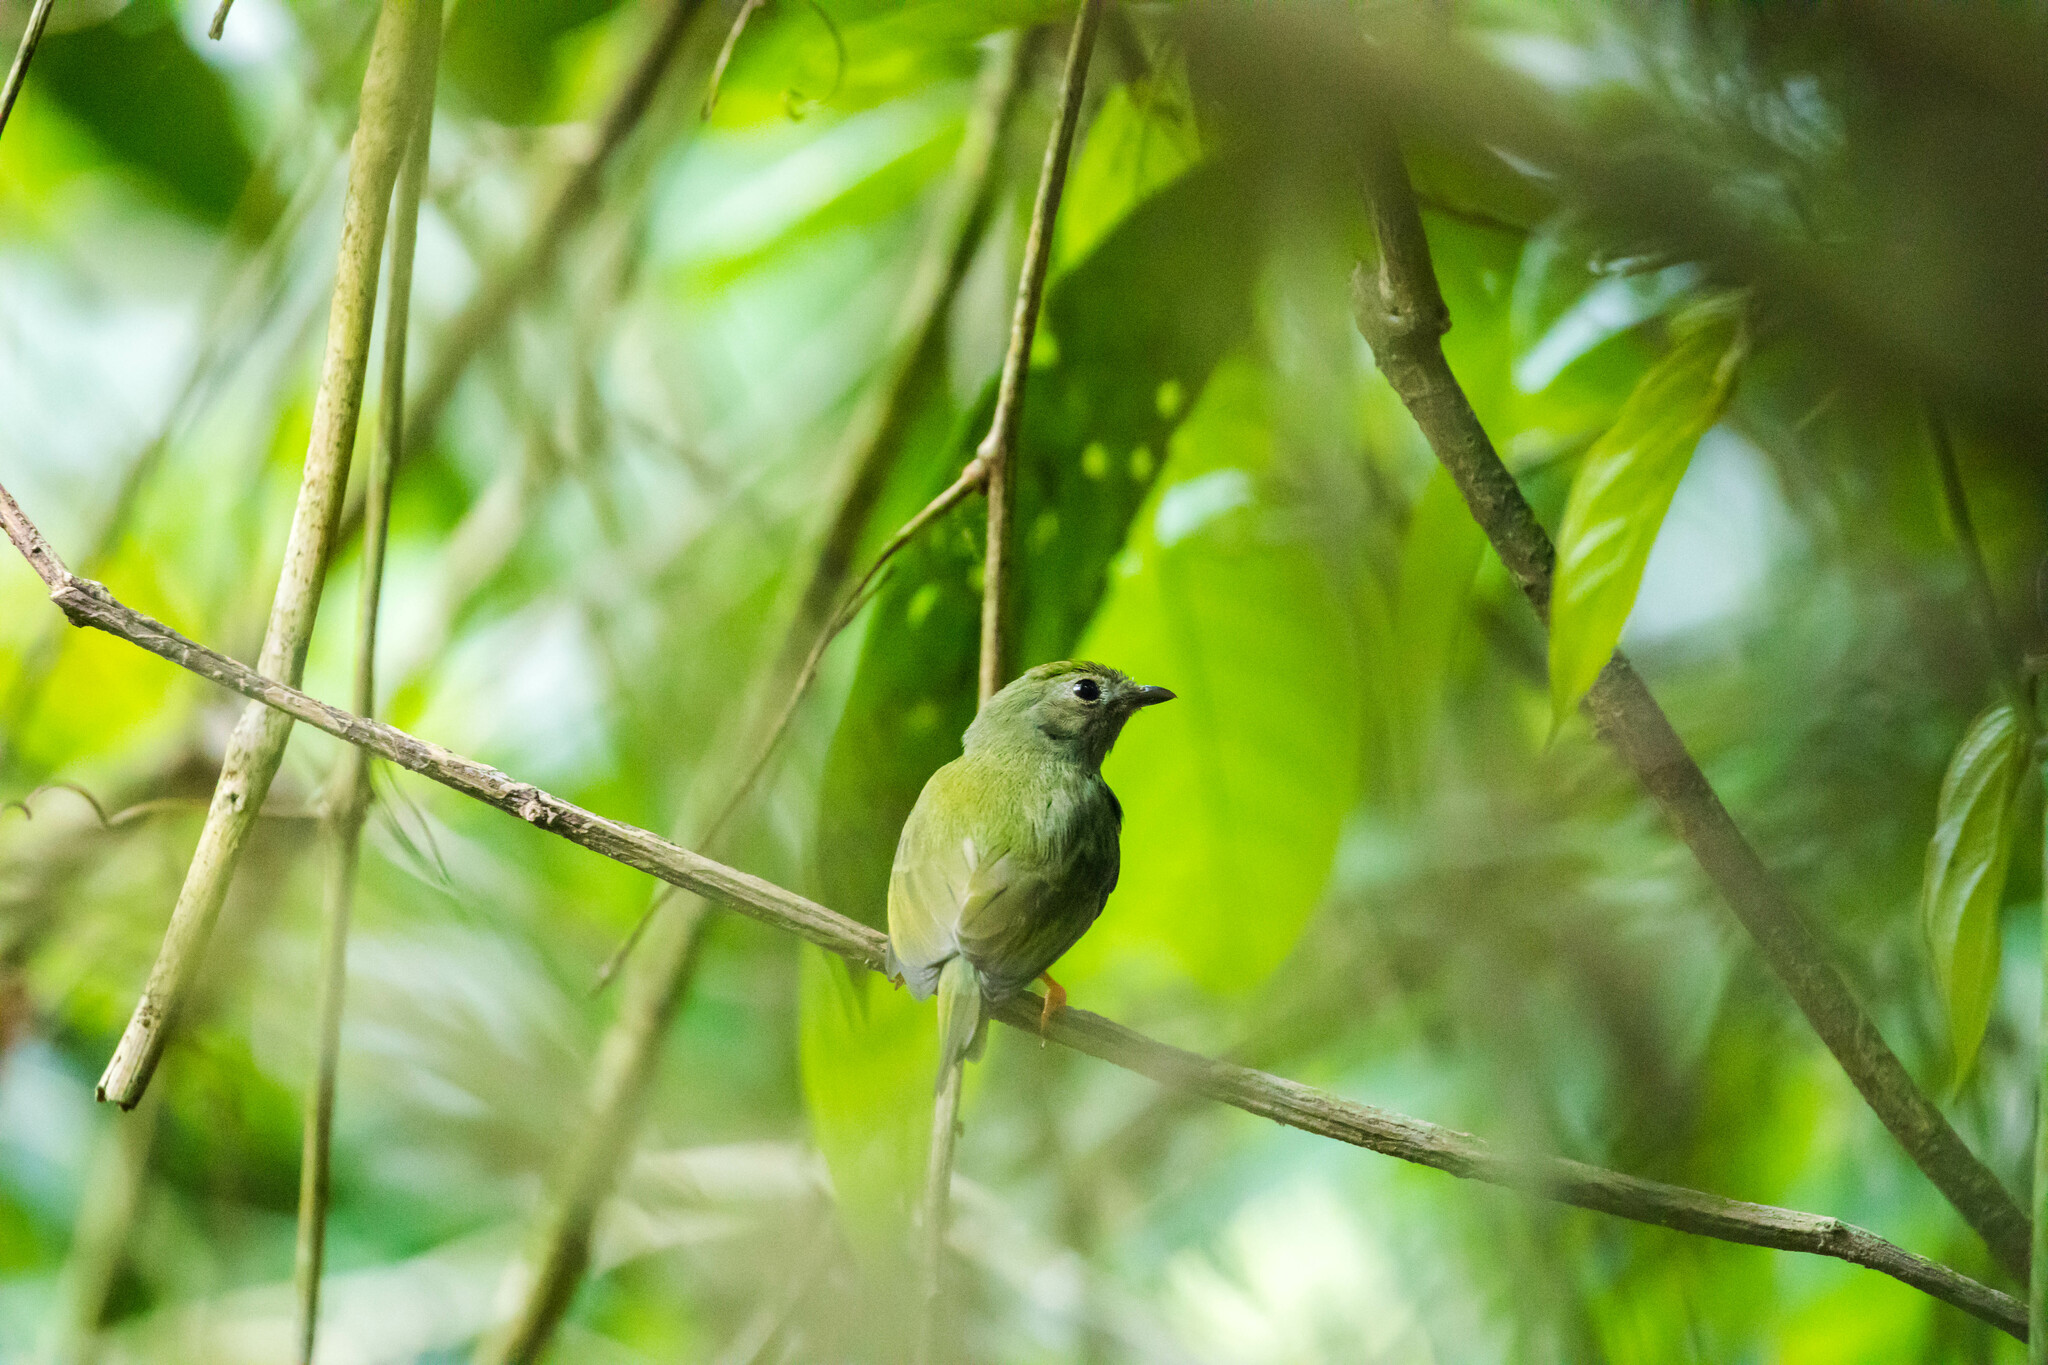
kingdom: Animalia
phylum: Chordata
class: Aves
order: Passeriformes
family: Pipridae
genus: Chiroxiphia
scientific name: Chiroxiphia lanceolata
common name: Lance-tailed manakin
